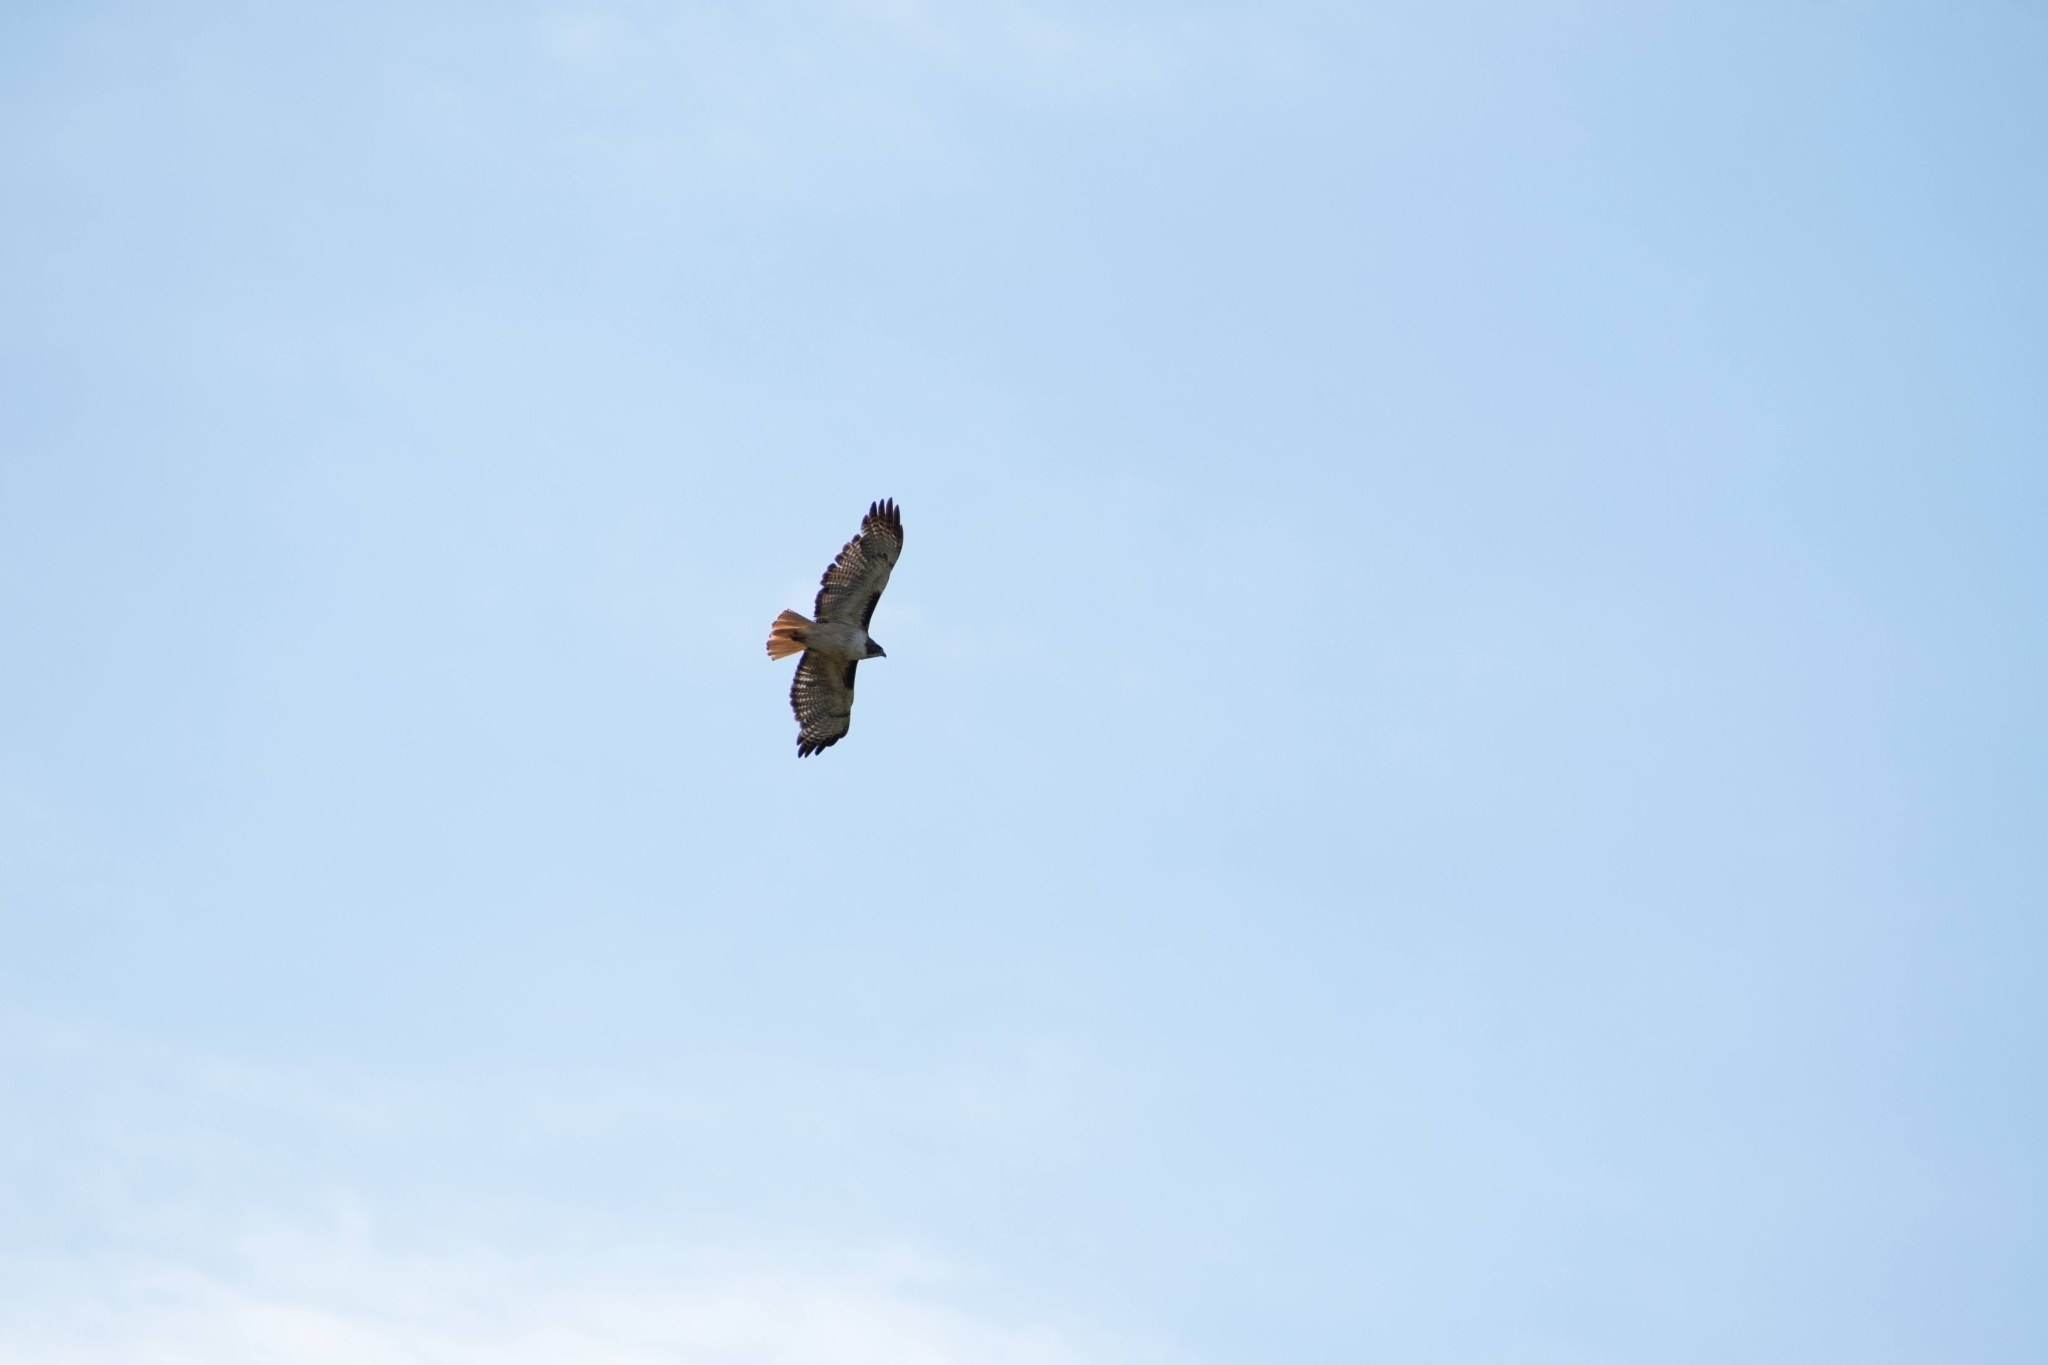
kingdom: Animalia
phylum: Chordata
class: Aves
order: Accipitriformes
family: Accipitridae
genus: Buteo
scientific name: Buteo jamaicensis
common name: Red-tailed hawk
